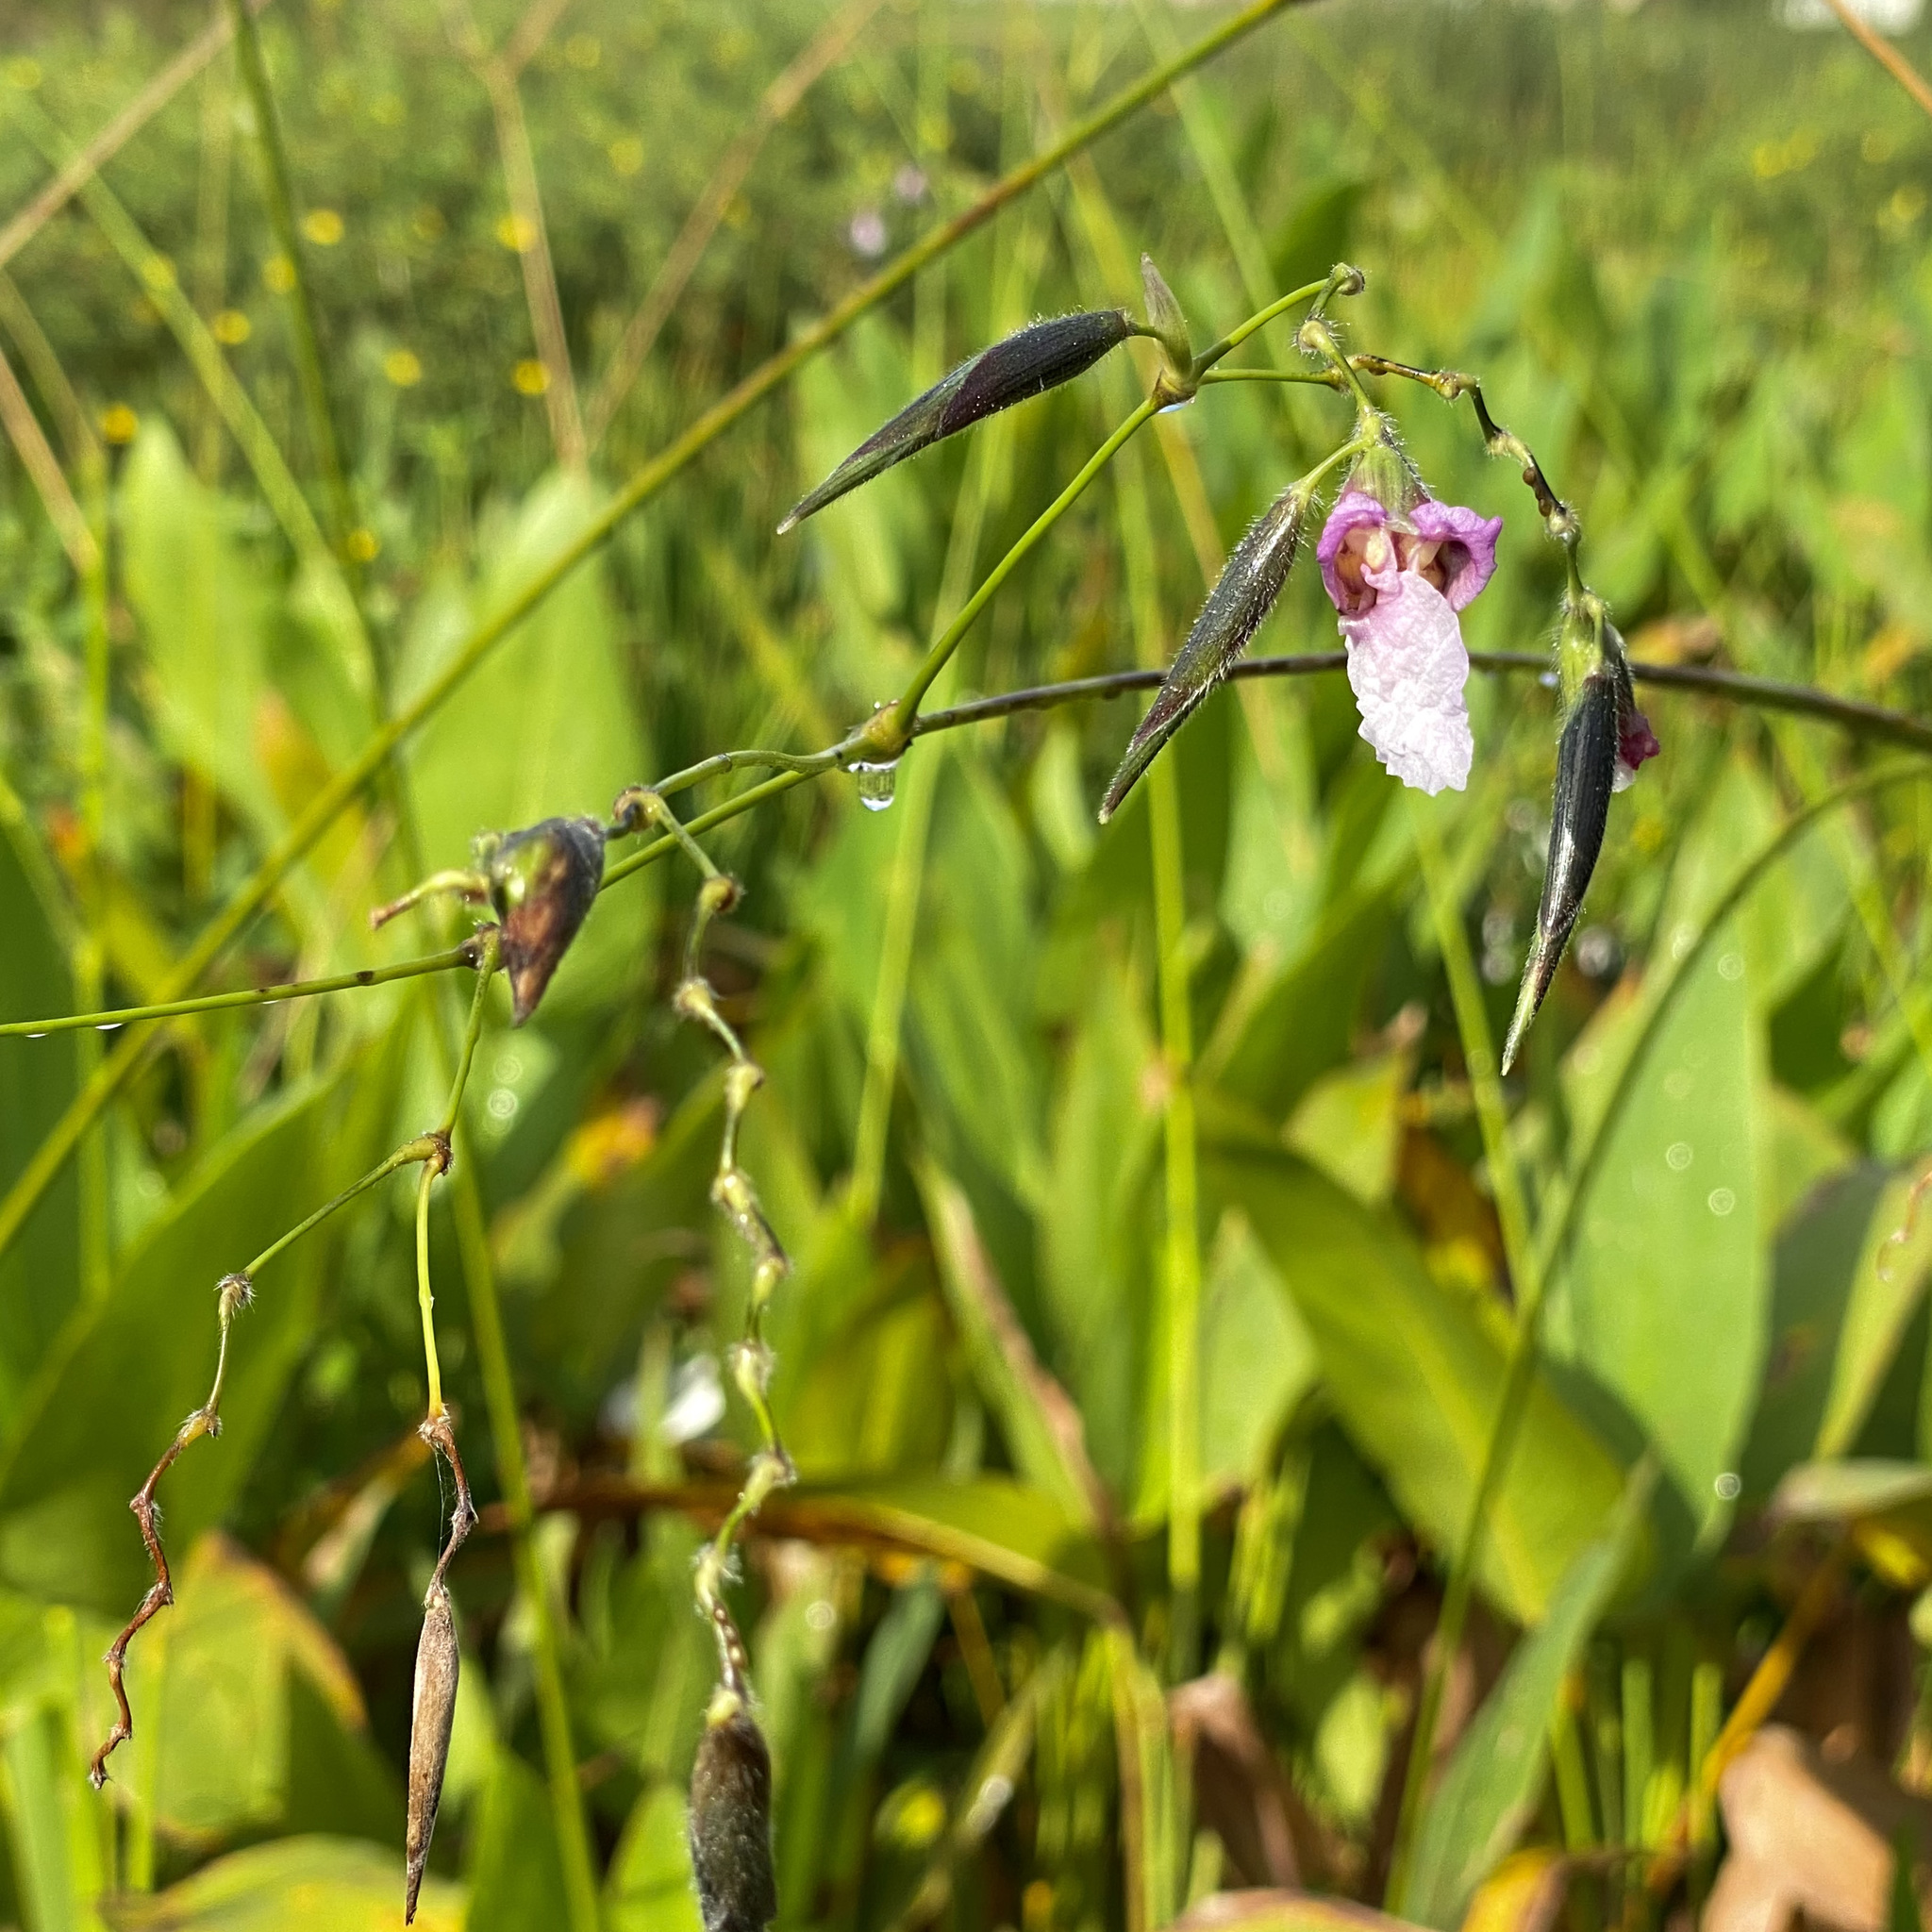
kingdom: Plantae
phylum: Tracheophyta
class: Liliopsida
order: Zingiberales
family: Marantaceae
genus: Thalia
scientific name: Thalia geniculata
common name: Arrowroot
